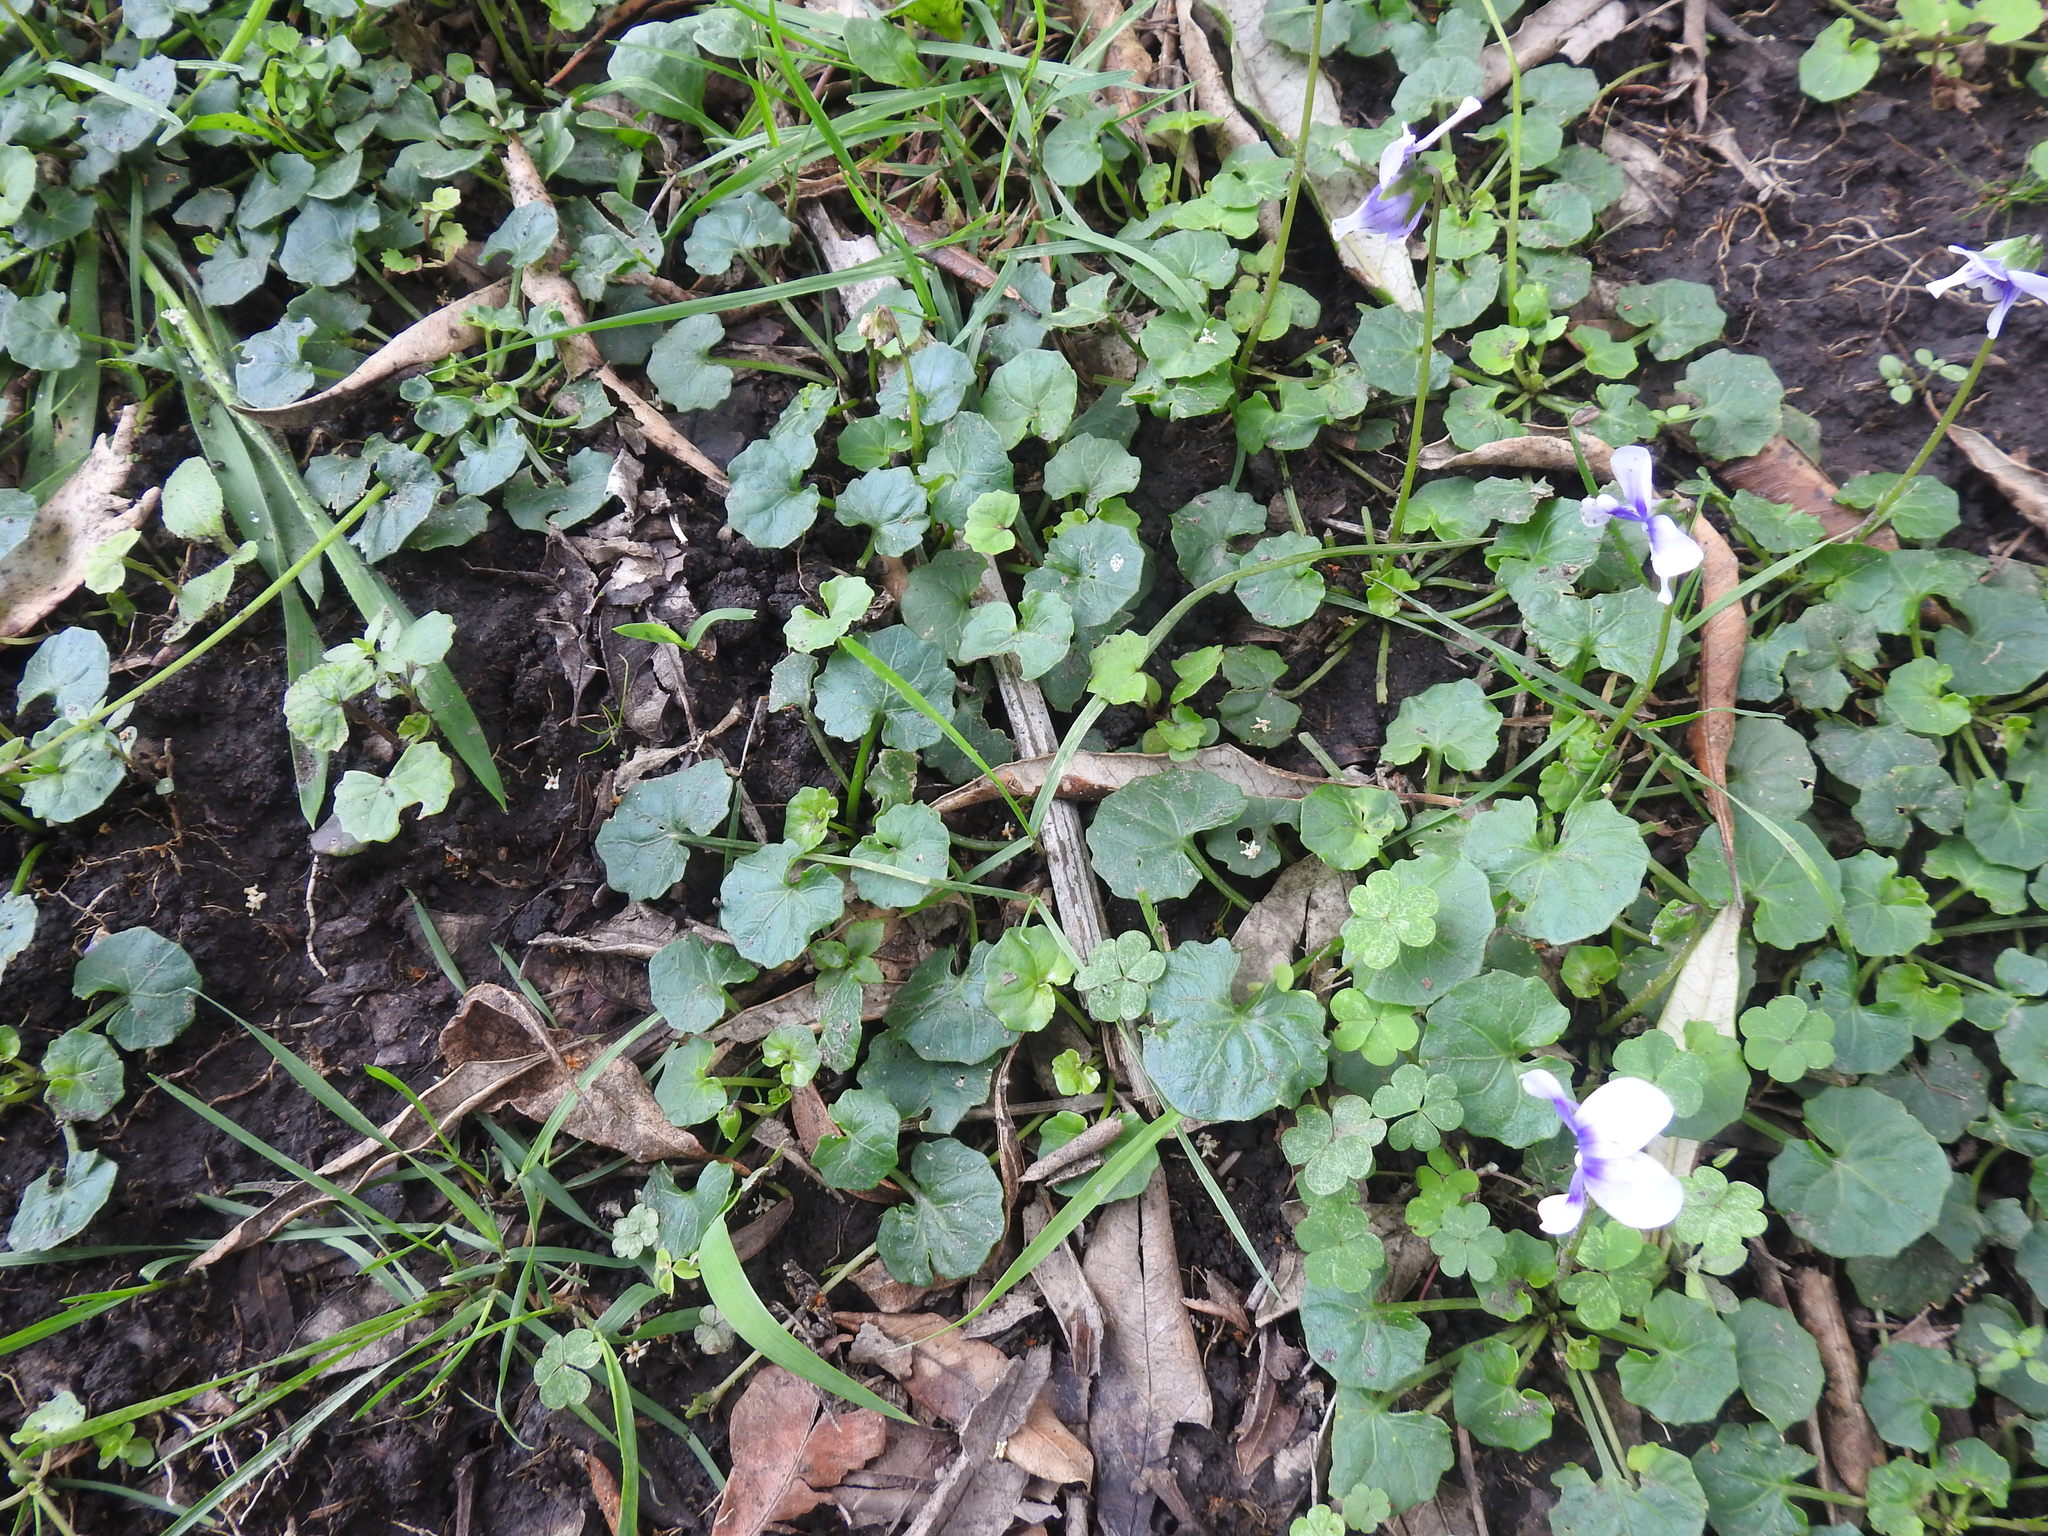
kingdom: Plantae
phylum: Tracheophyta
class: Magnoliopsida
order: Malpighiales
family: Violaceae
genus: Viola
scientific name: Viola banksii
